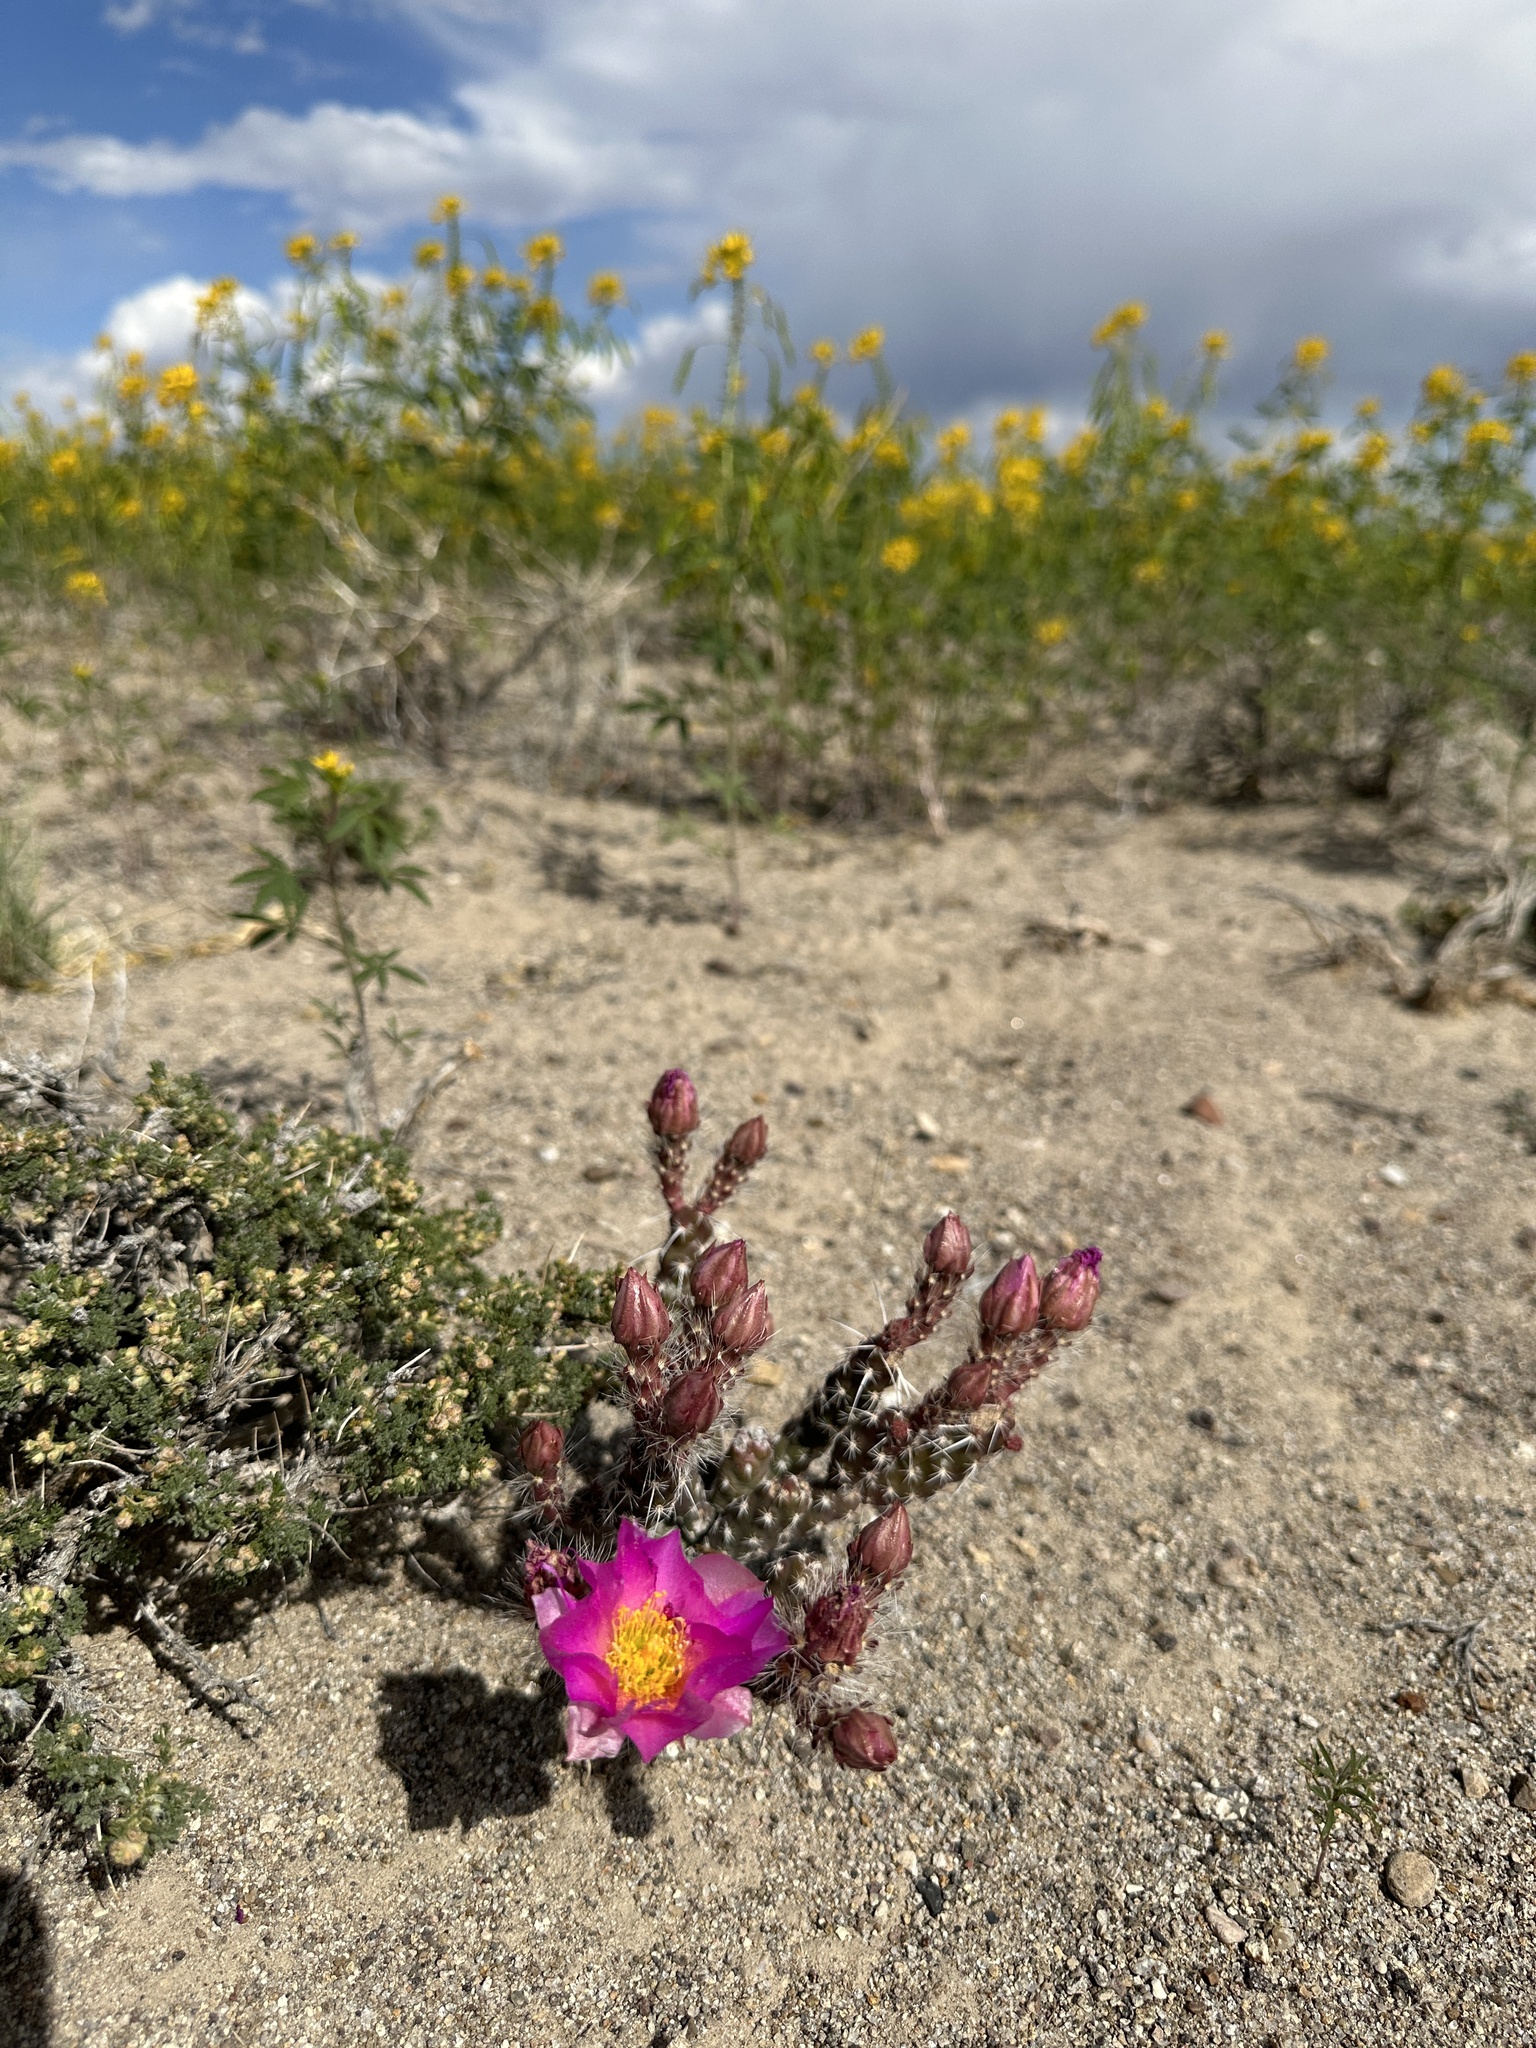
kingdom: Plantae
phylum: Tracheophyta
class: Magnoliopsida
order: Caryophyllales
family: Cactaceae
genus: Micropuntia
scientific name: Micropuntia pulchella
